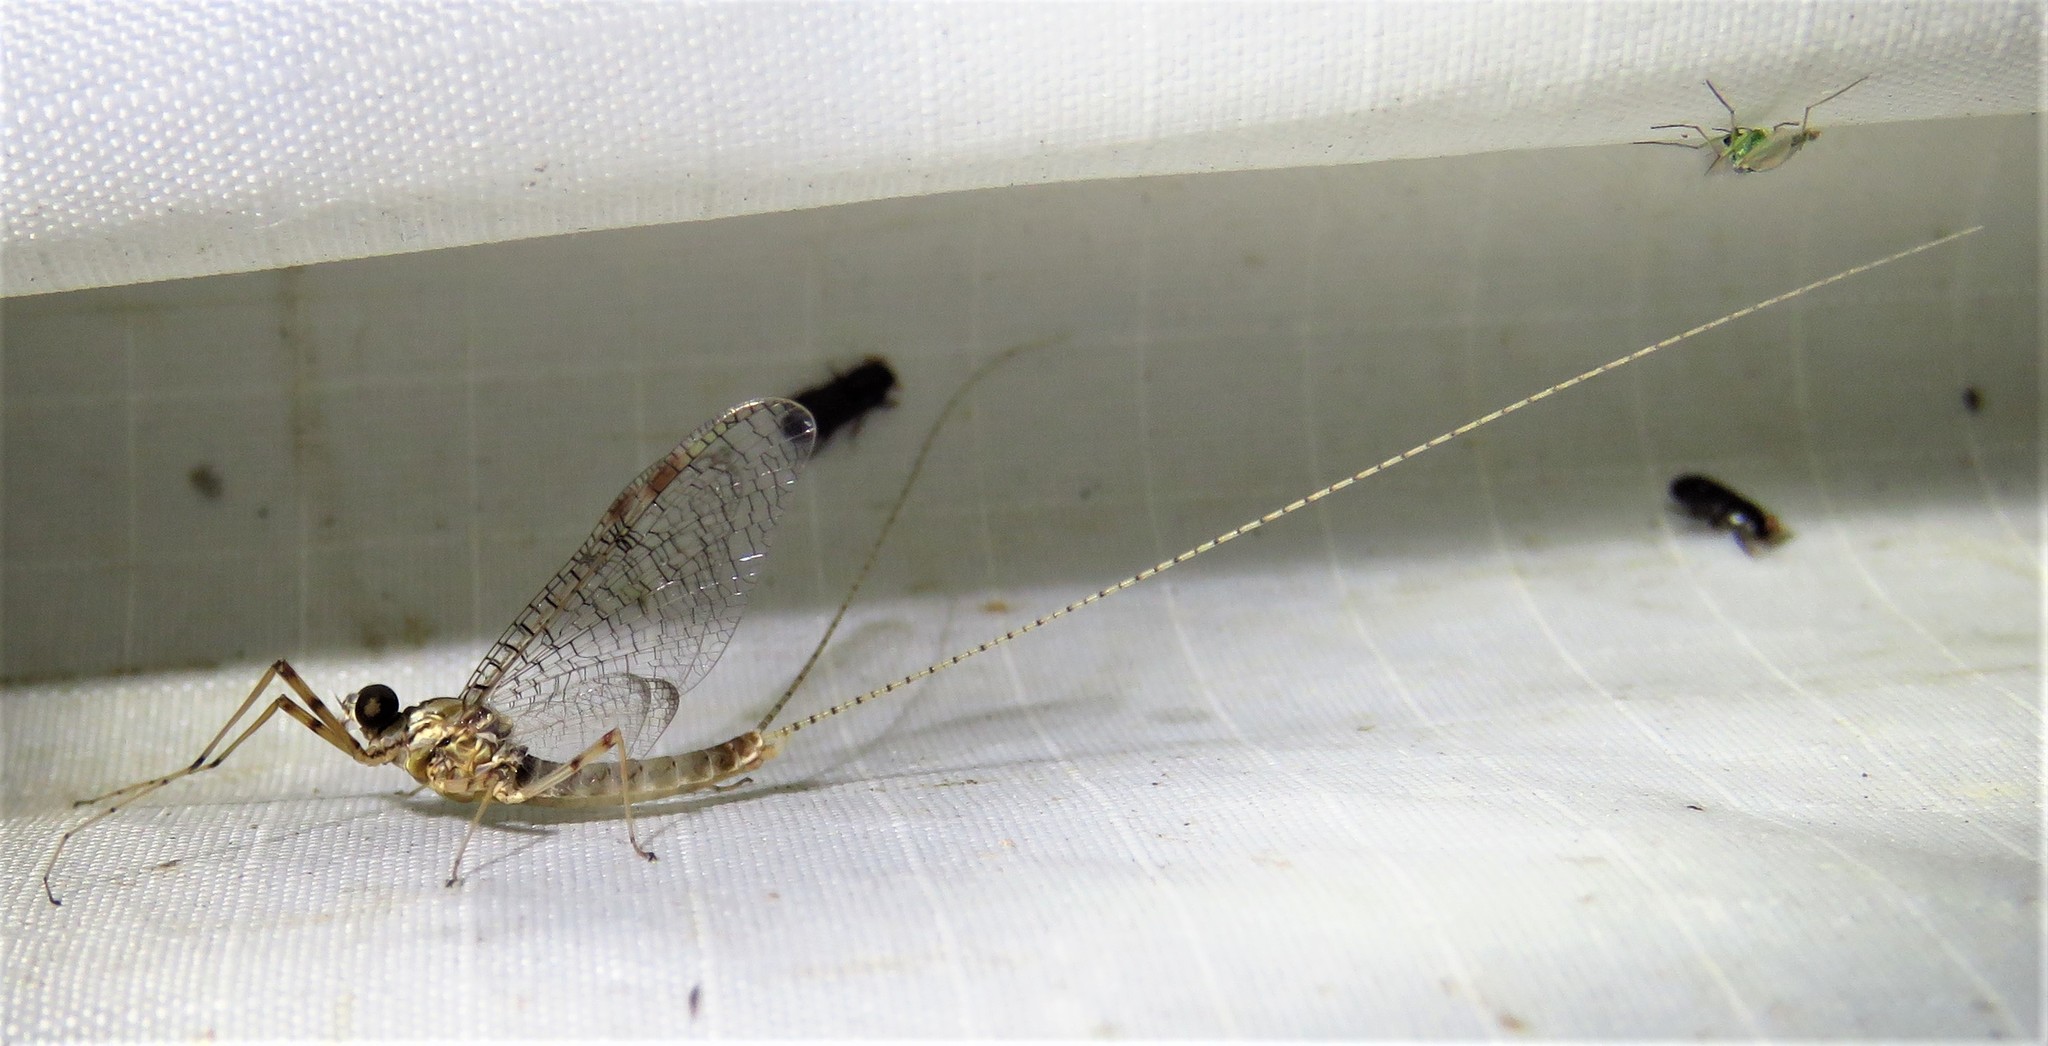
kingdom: Animalia
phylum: Arthropoda
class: Insecta
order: Ephemeroptera
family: Heptageniidae
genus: Stenonema
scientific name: Stenonema femoratum
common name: Dark cahill
